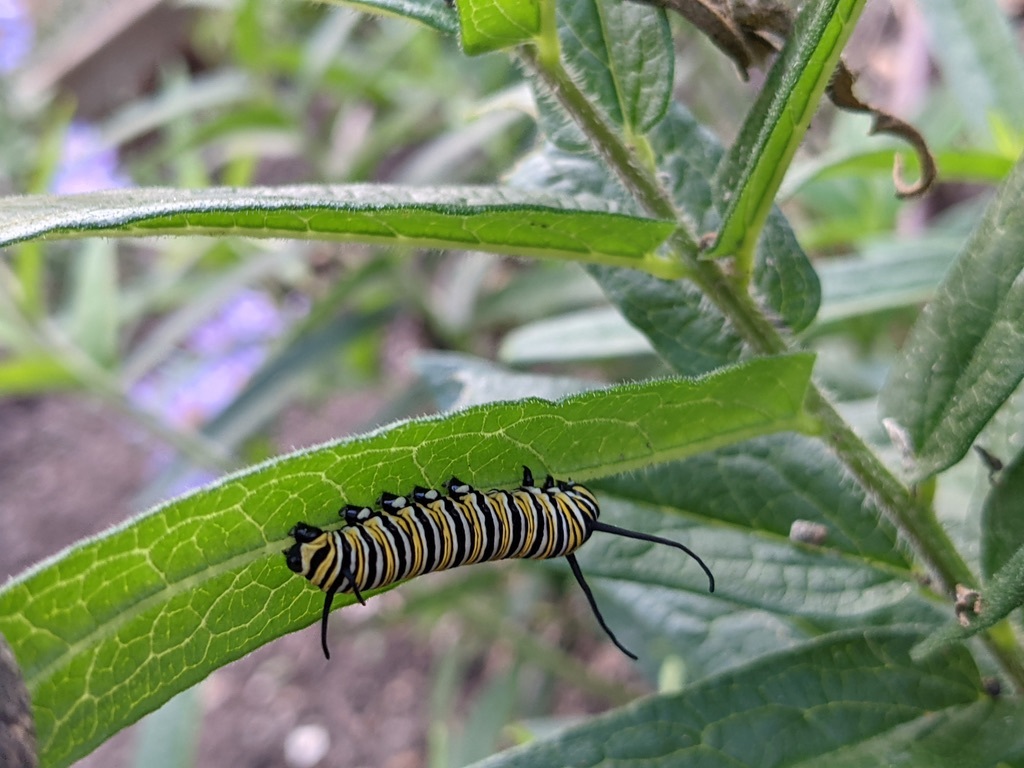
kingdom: Animalia
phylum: Arthropoda
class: Insecta
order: Lepidoptera
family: Nymphalidae
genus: Danaus
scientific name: Danaus plexippus
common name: Monarch
